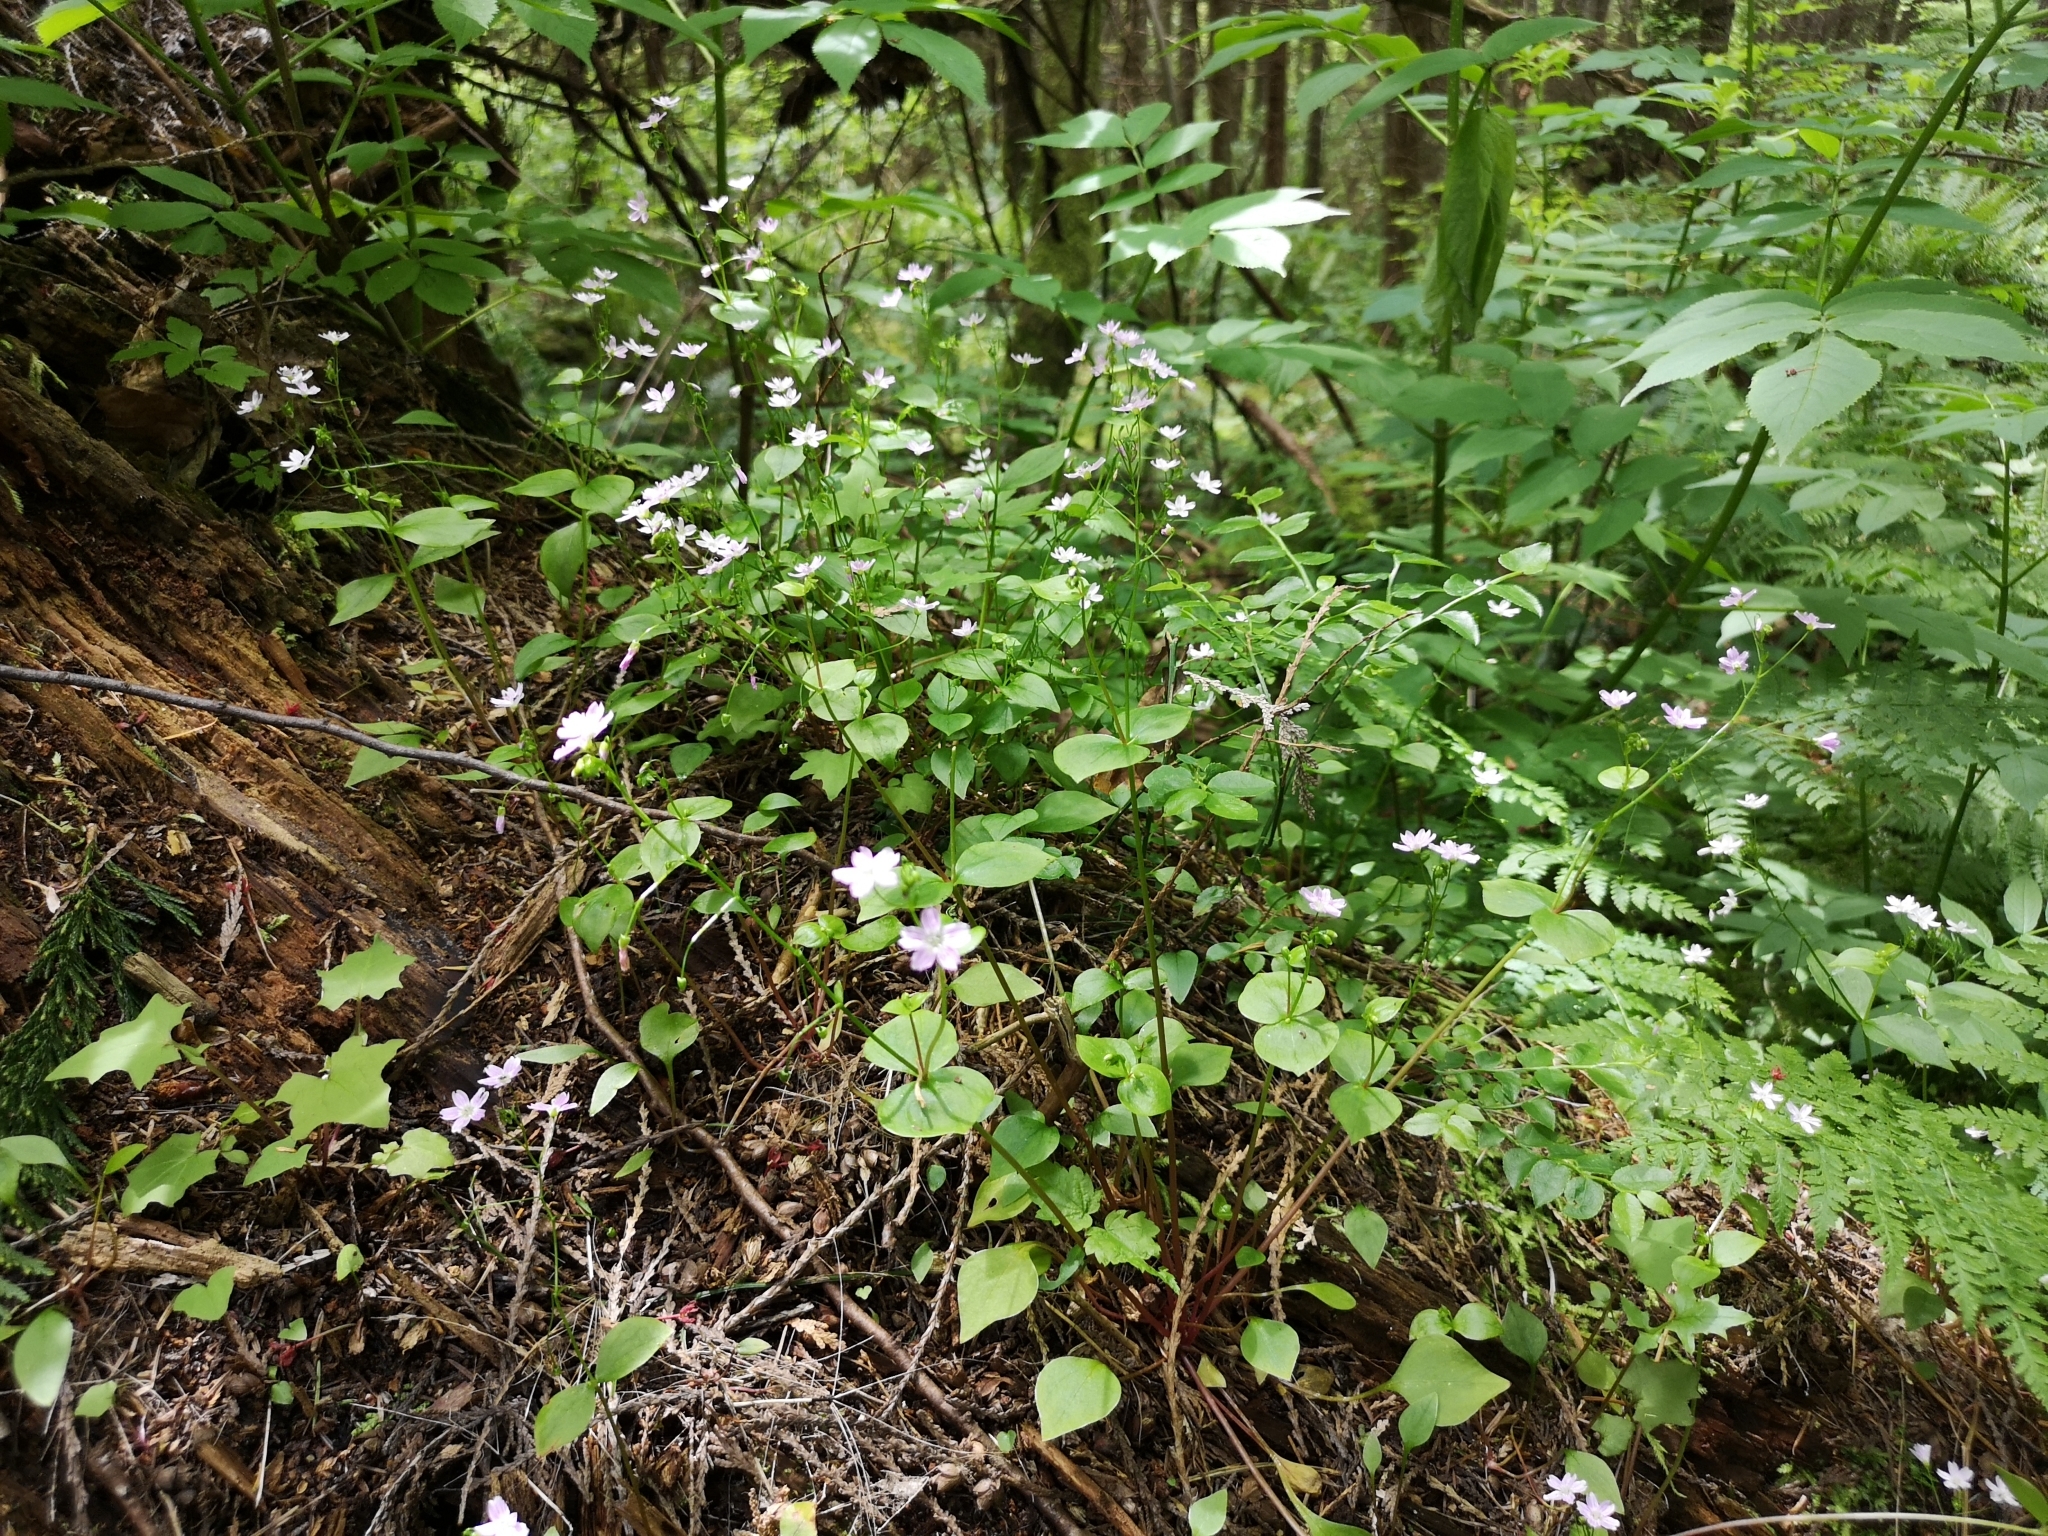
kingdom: Plantae
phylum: Tracheophyta
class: Magnoliopsida
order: Caryophyllales
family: Montiaceae
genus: Claytonia
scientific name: Claytonia sibirica
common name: Pink purslane
